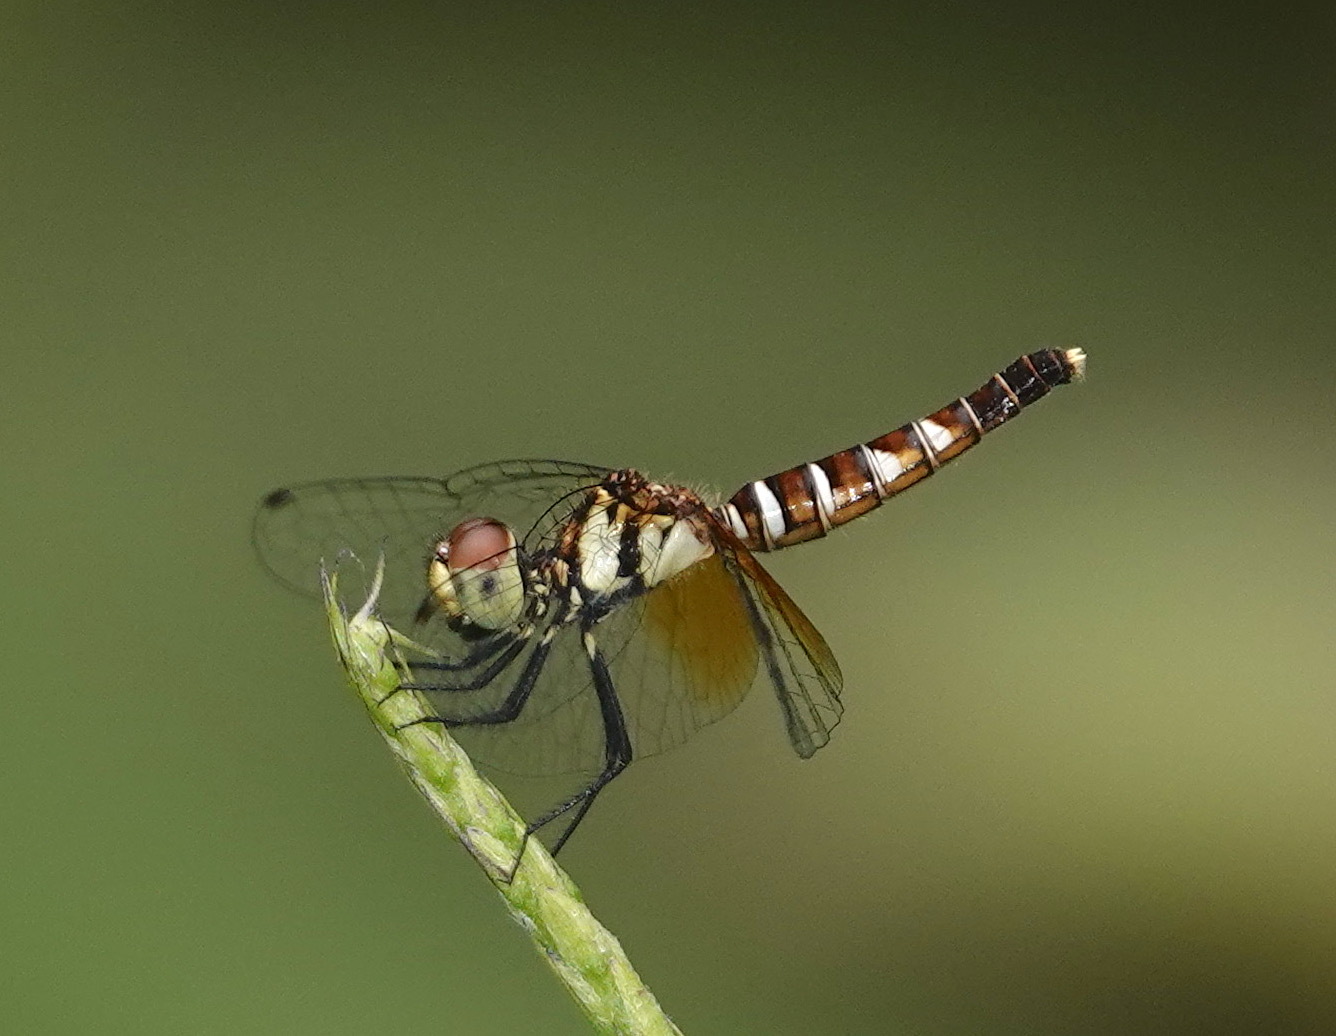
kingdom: Animalia
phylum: Arthropoda
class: Insecta
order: Odonata
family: Libellulidae
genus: Nannophya
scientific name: Nannophya pygmaea
